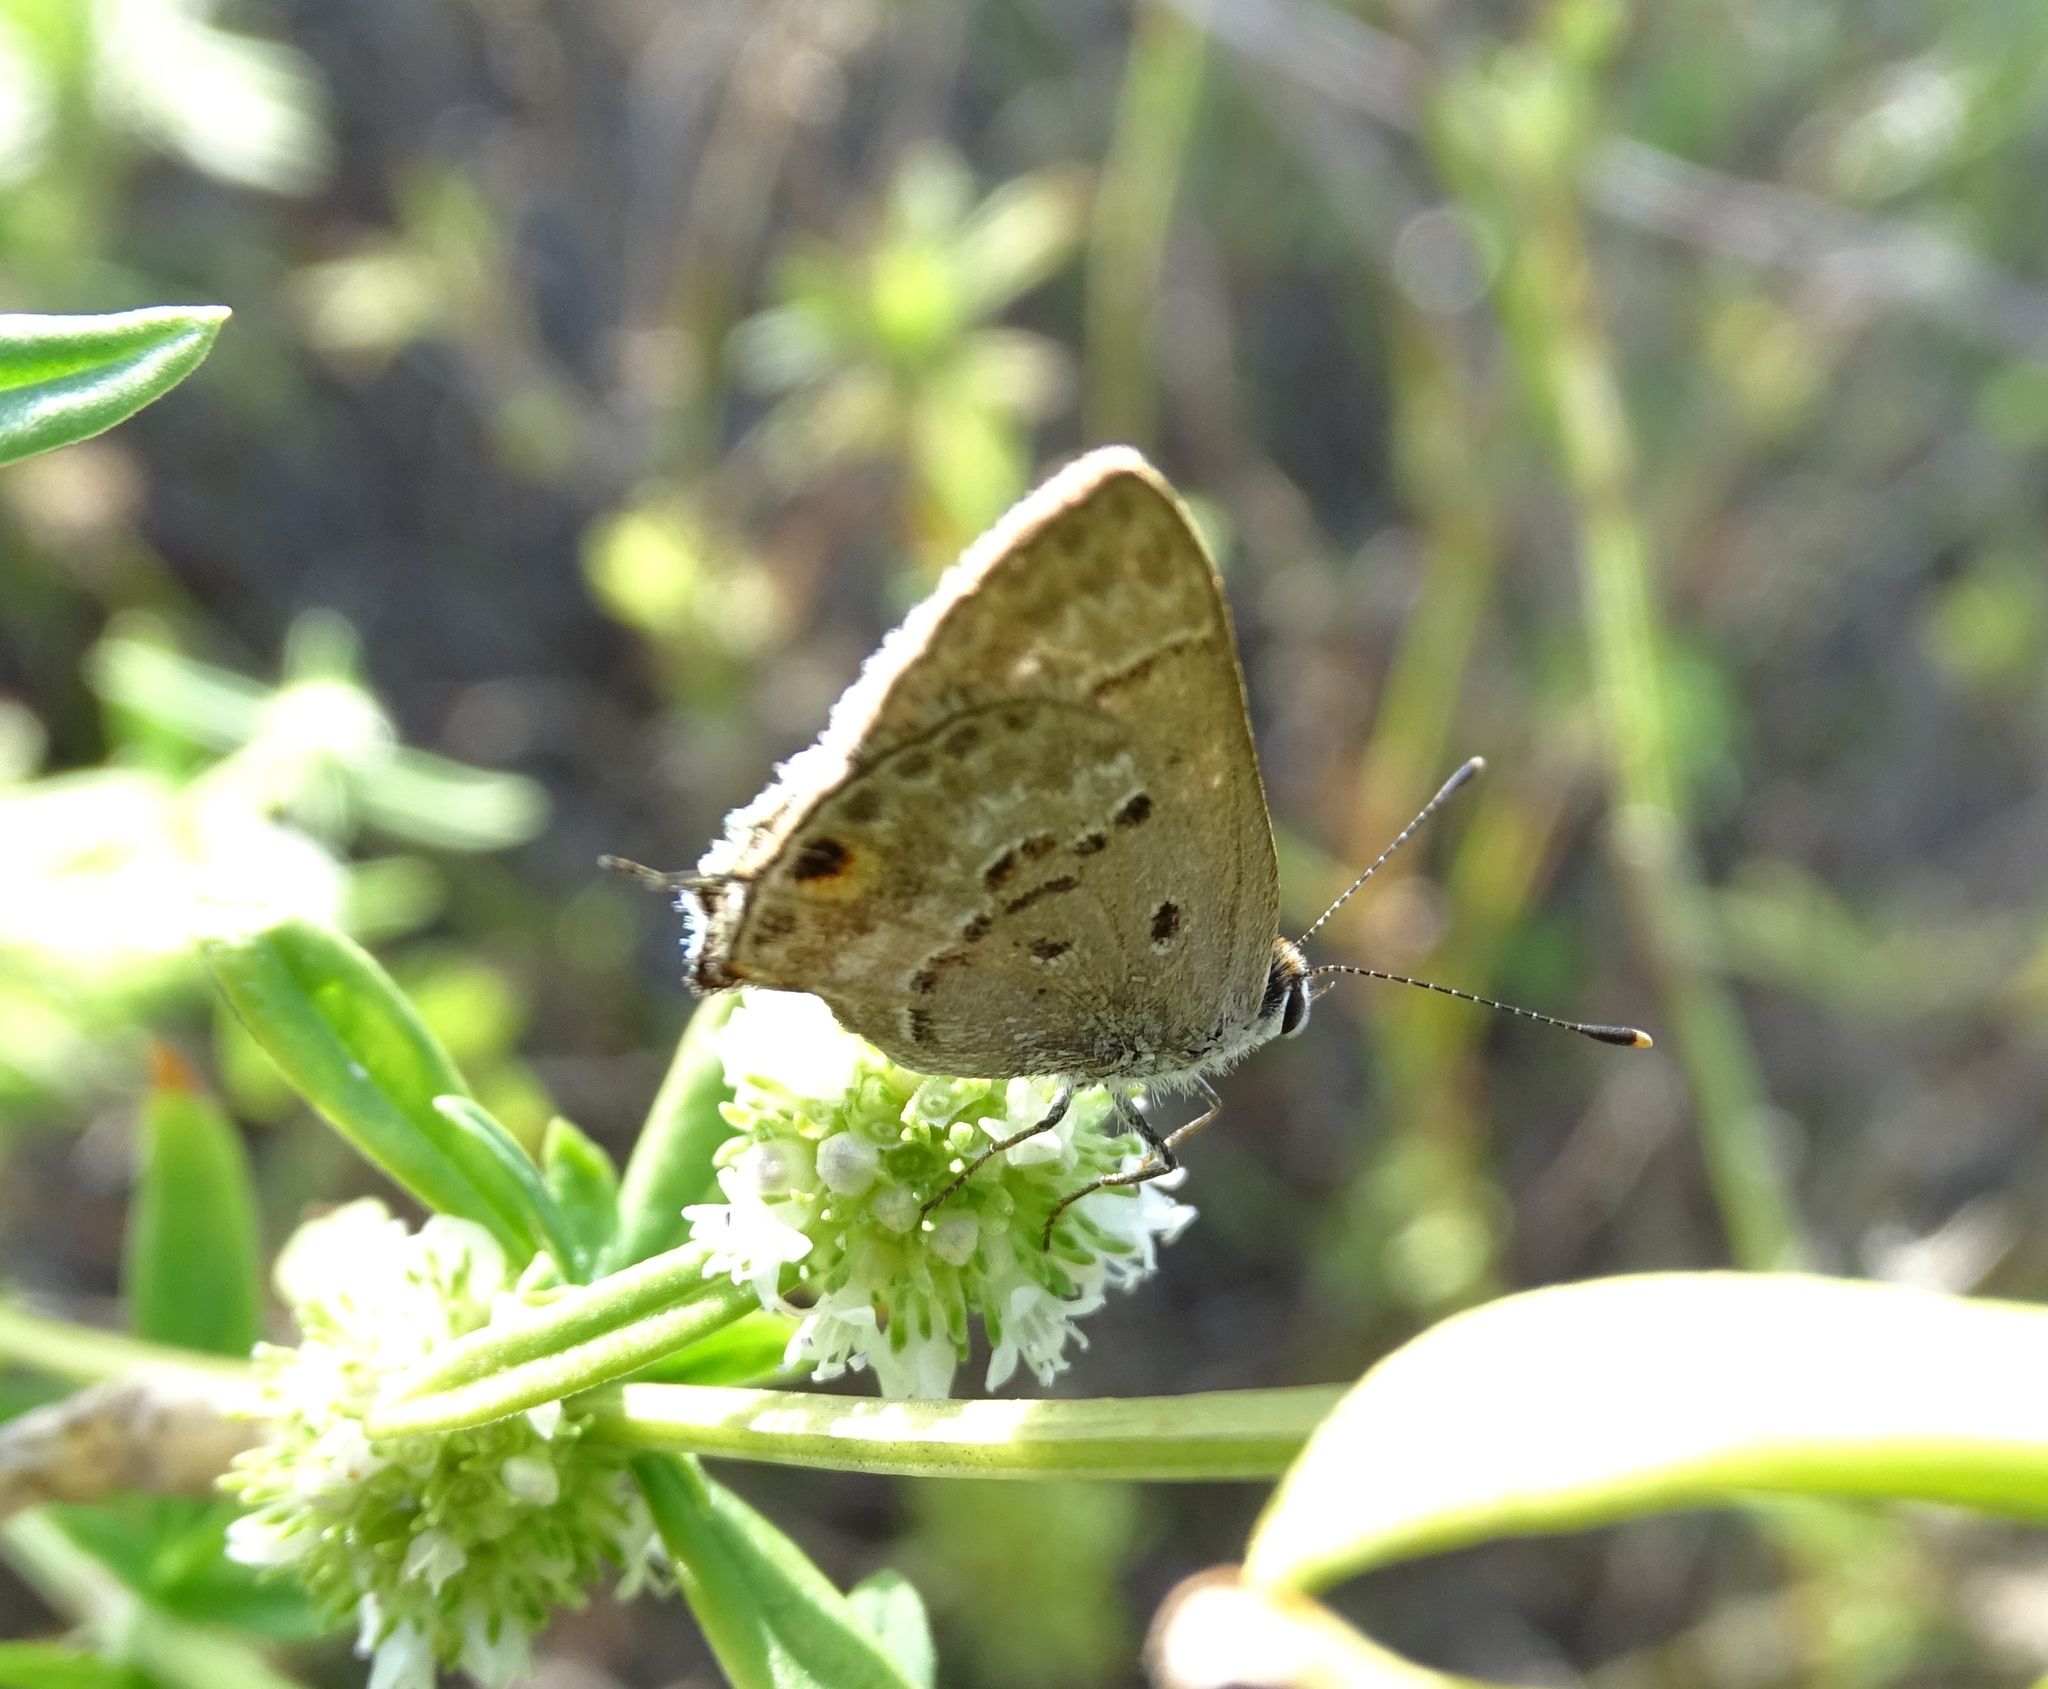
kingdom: Animalia
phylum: Arthropoda
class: Insecta
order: Lepidoptera
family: Lycaenidae
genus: Callicista
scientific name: Callicista columella
